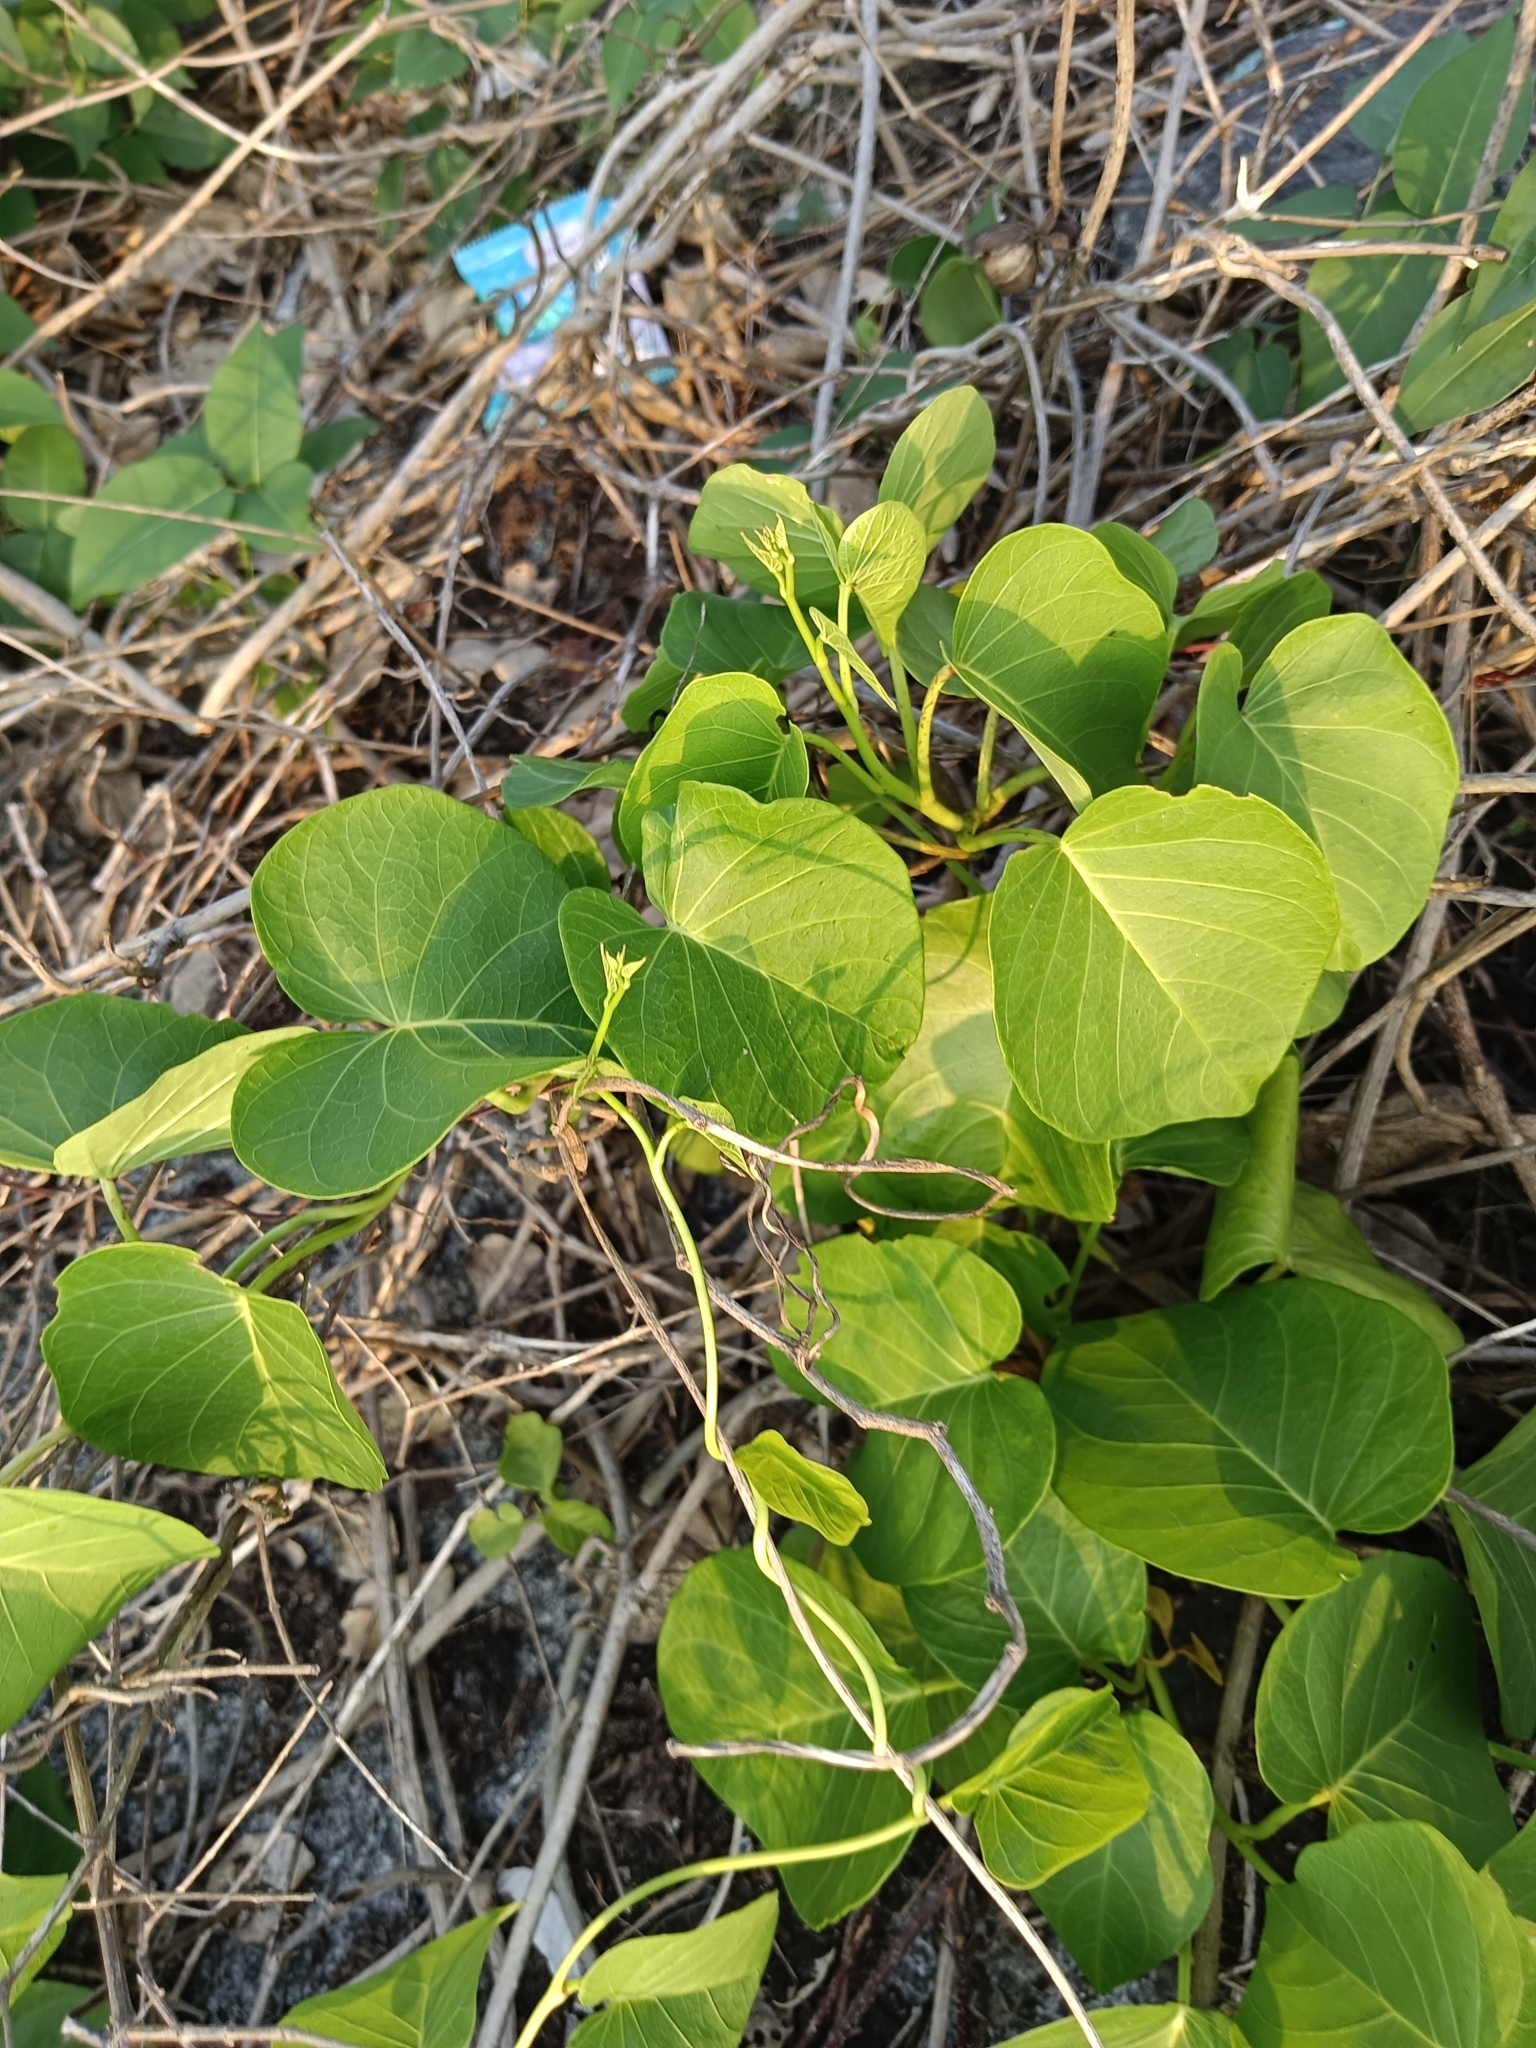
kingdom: Plantae
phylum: Tracheophyta
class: Magnoliopsida
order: Solanales
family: Convolvulaceae
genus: Ipomoea
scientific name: Ipomoea violacea
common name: Beach moonflower
